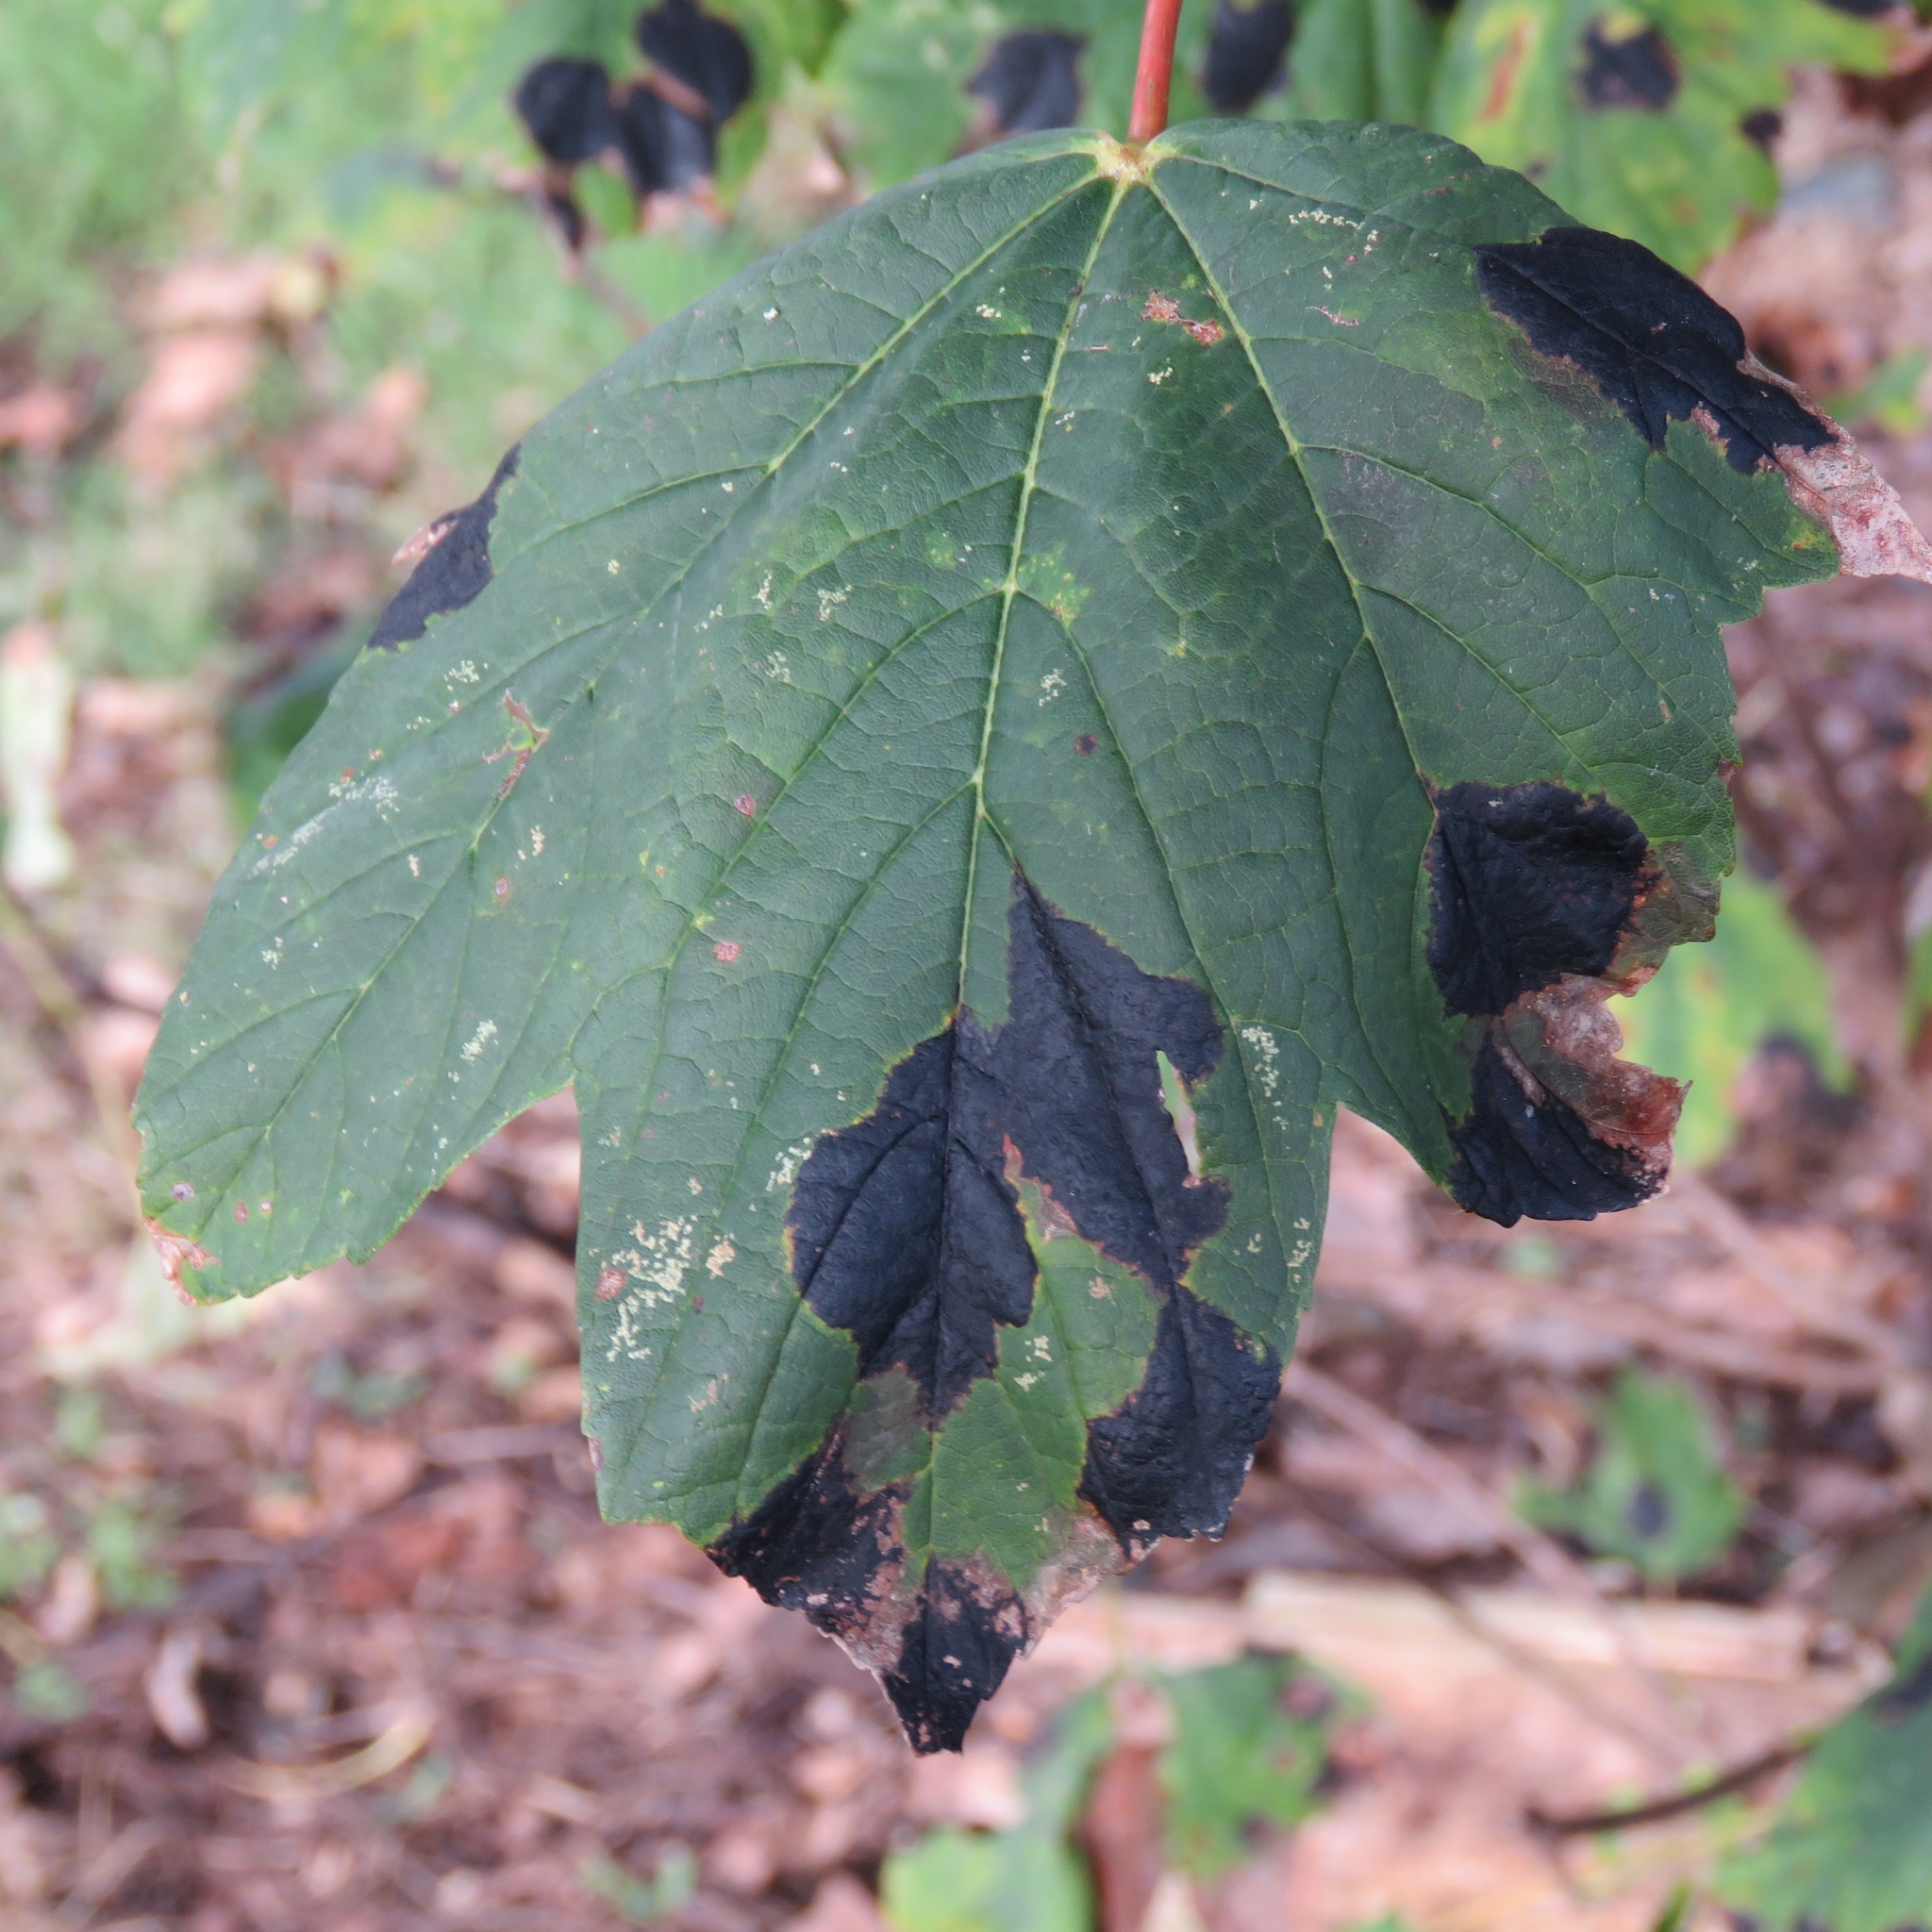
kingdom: Fungi
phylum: Ascomycota
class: Leotiomycetes
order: Rhytismatales
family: Rhytismataceae
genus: Rhytisma
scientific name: Rhytisma acerinum
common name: European tar spot
